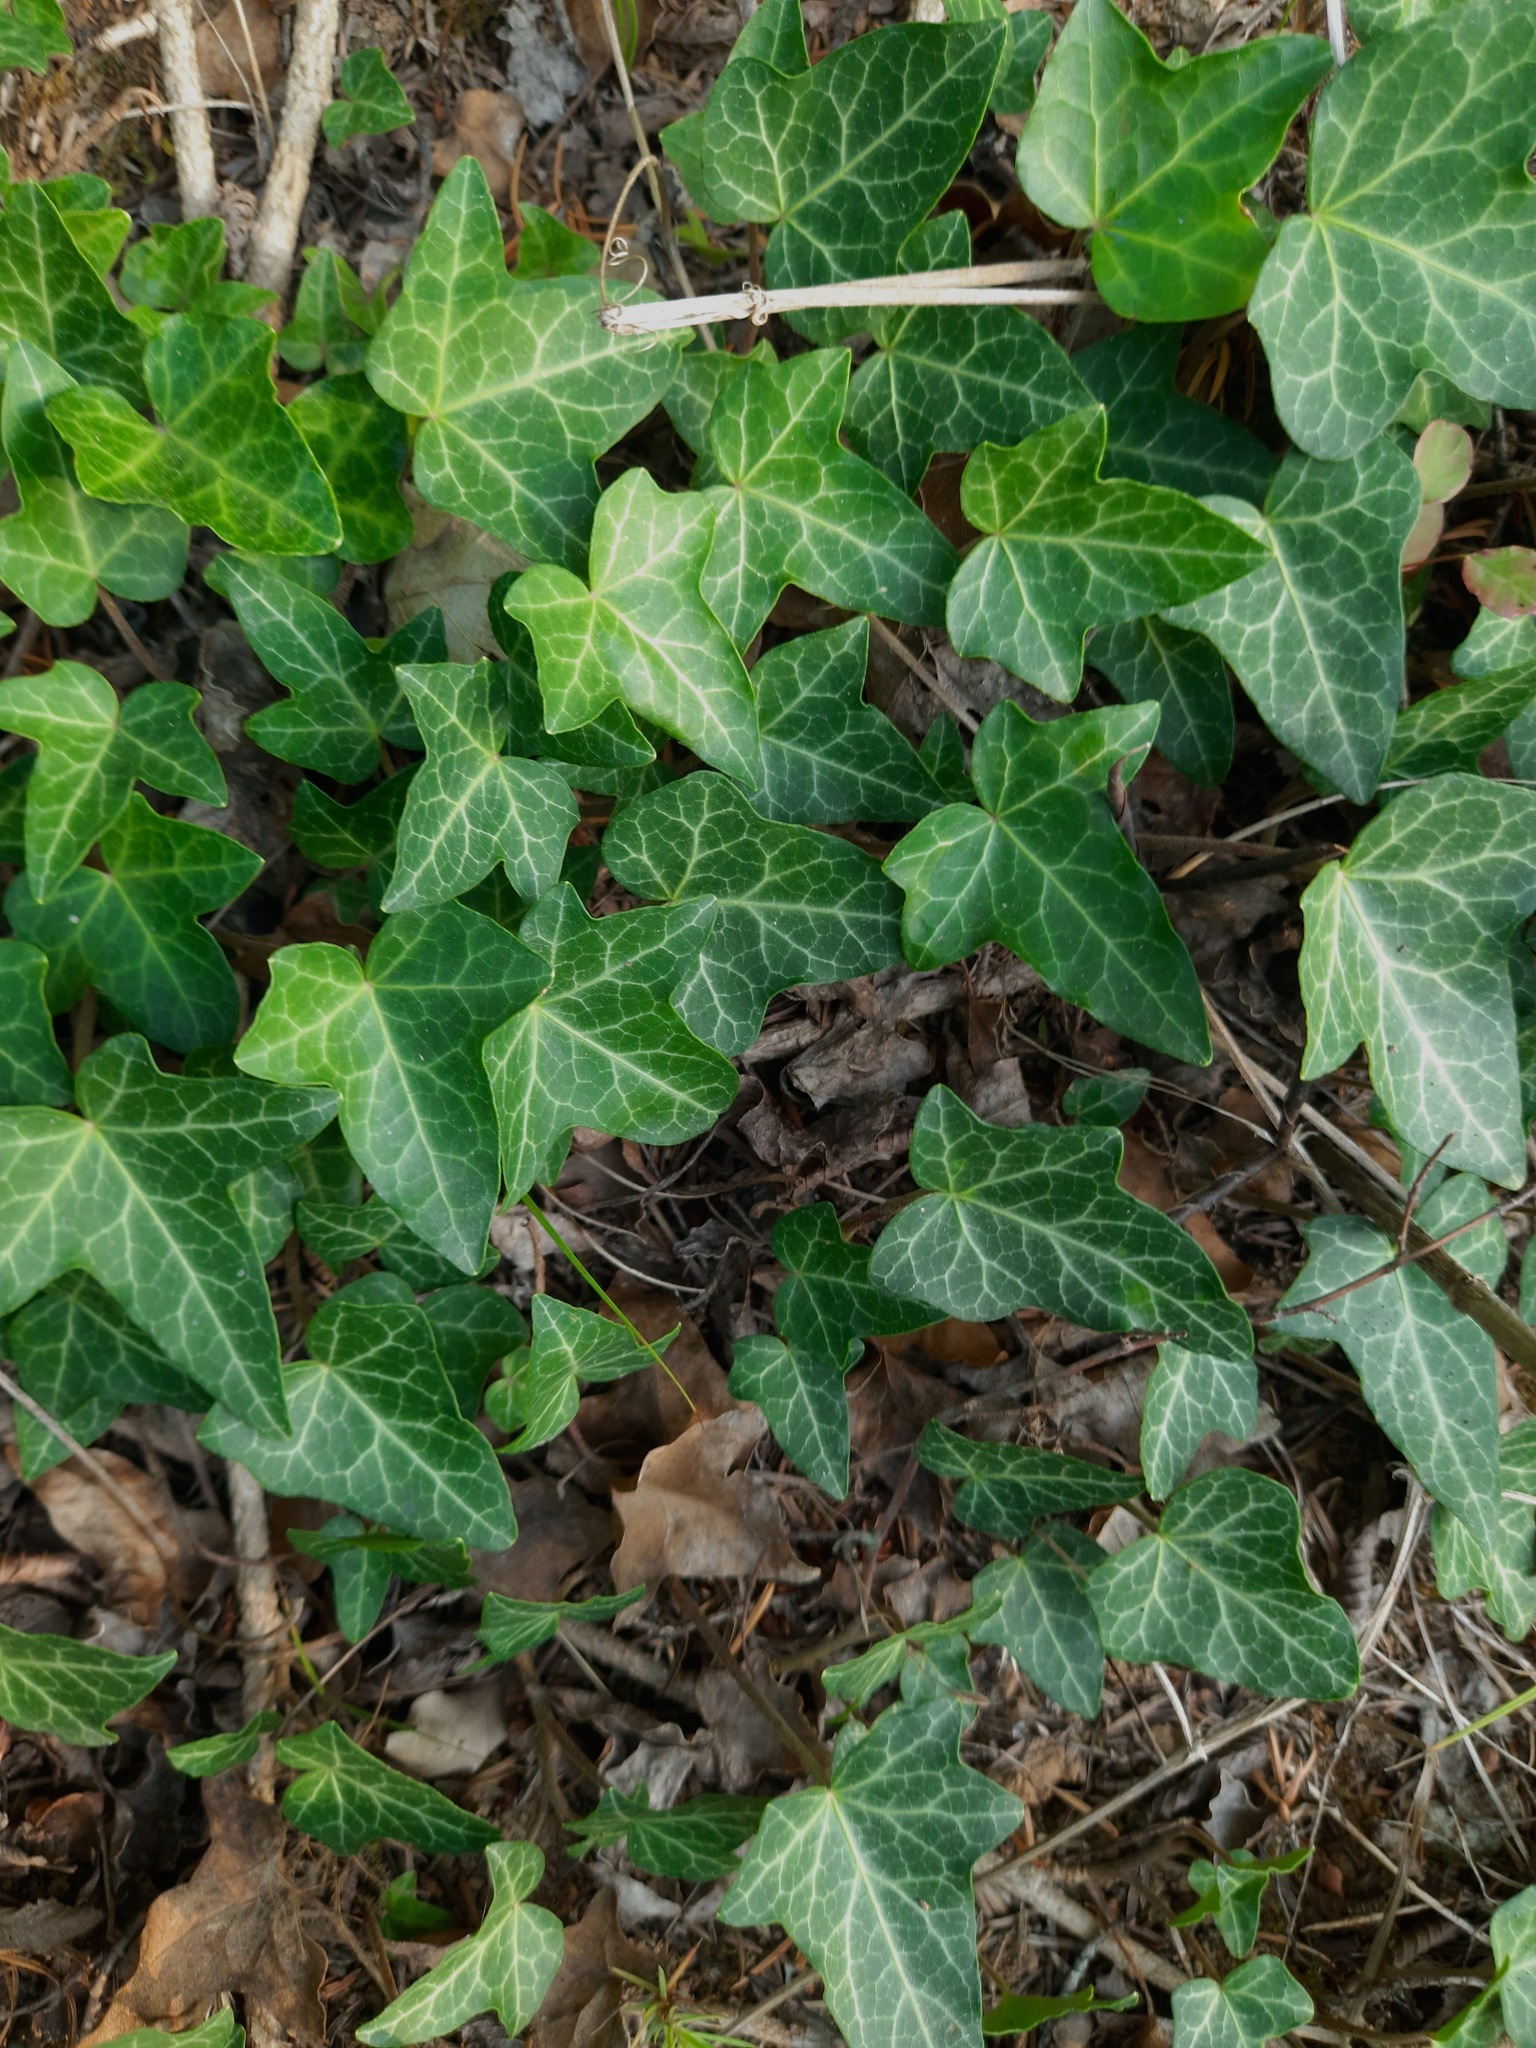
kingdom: Plantae
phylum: Tracheophyta
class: Magnoliopsida
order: Apiales
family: Araliaceae
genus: Hedera
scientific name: Hedera helix
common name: Ivy
